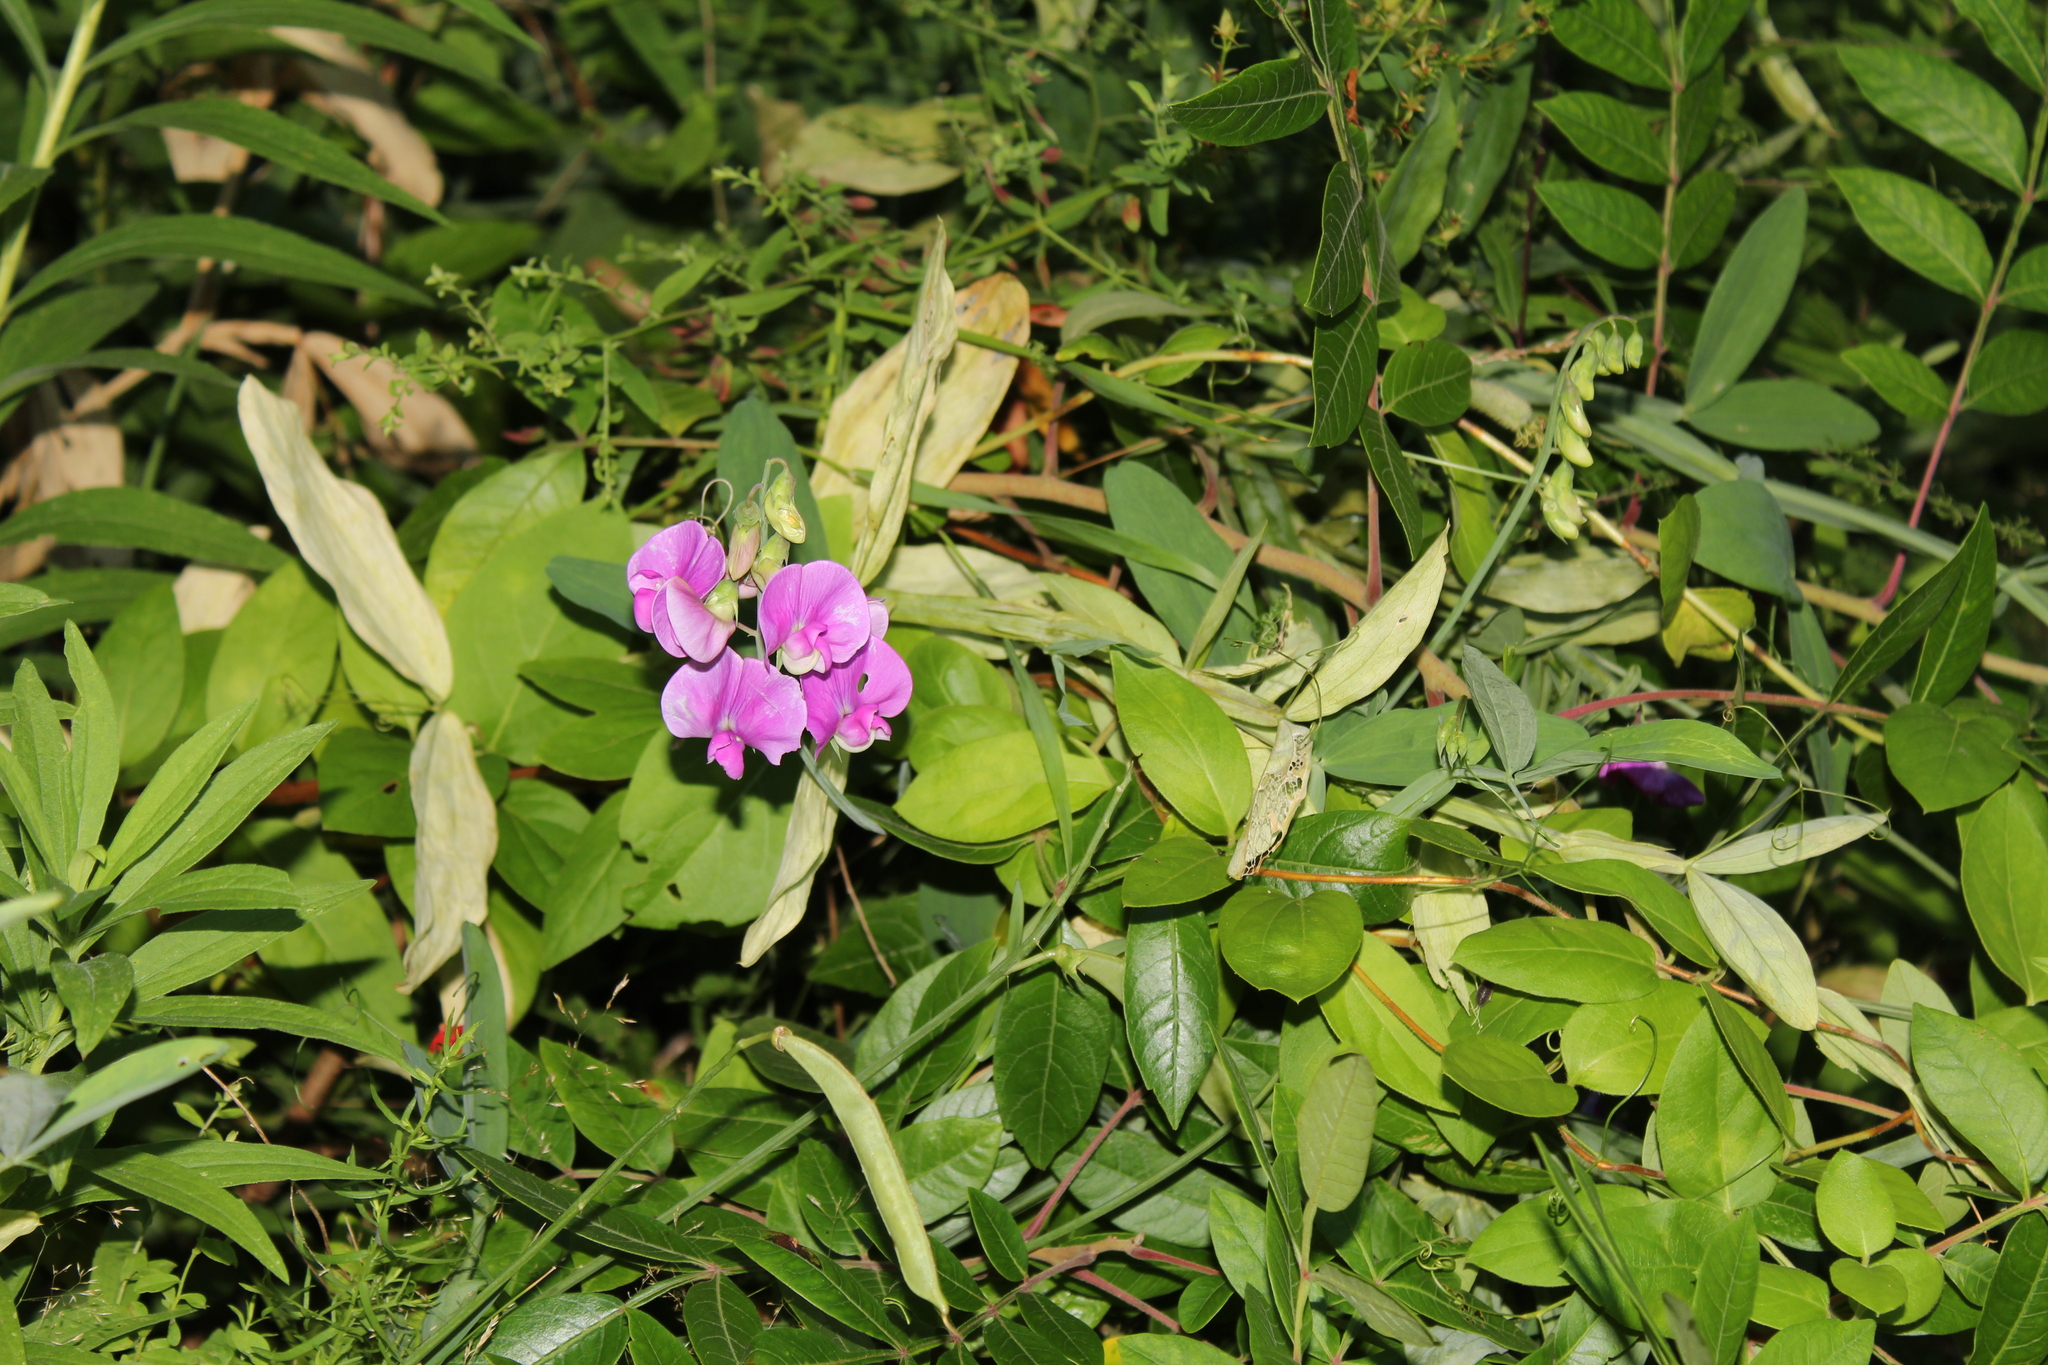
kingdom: Plantae
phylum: Tracheophyta
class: Magnoliopsida
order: Fabales
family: Fabaceae
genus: Lathyrus
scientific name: Lathyrus latifolius
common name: Perennial pea
